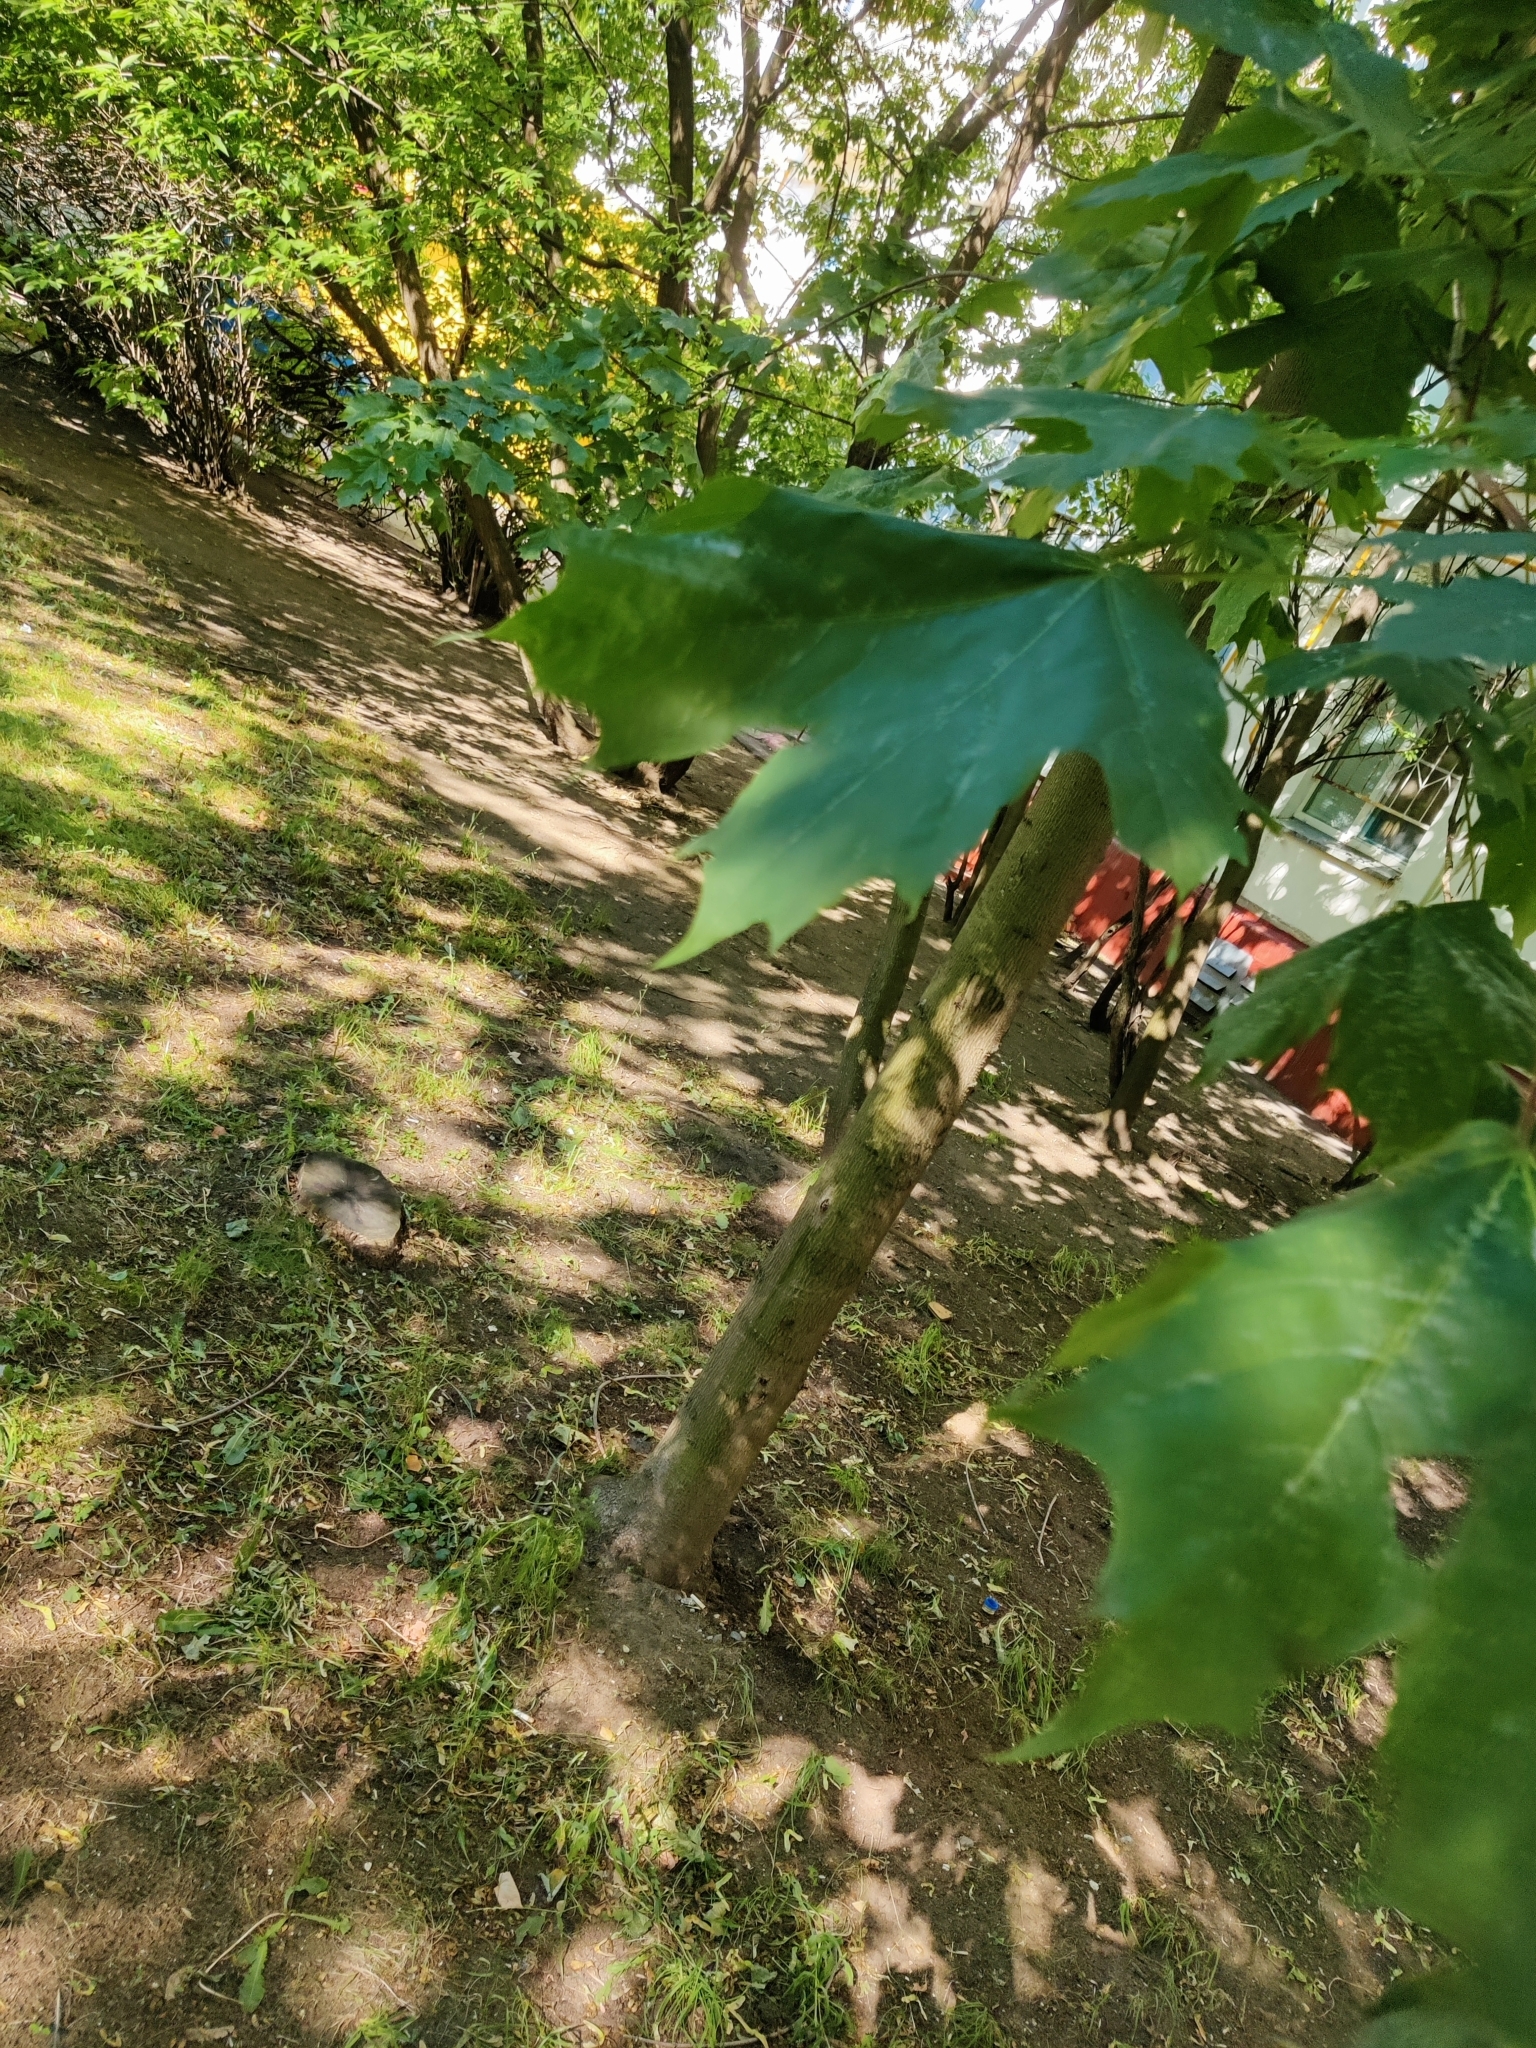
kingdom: Plantae
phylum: Tracheophyta
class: Magnoliopsida
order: Sapindales
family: Sapindaceae
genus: Acer
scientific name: Acer platanoides
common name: Norway maple
